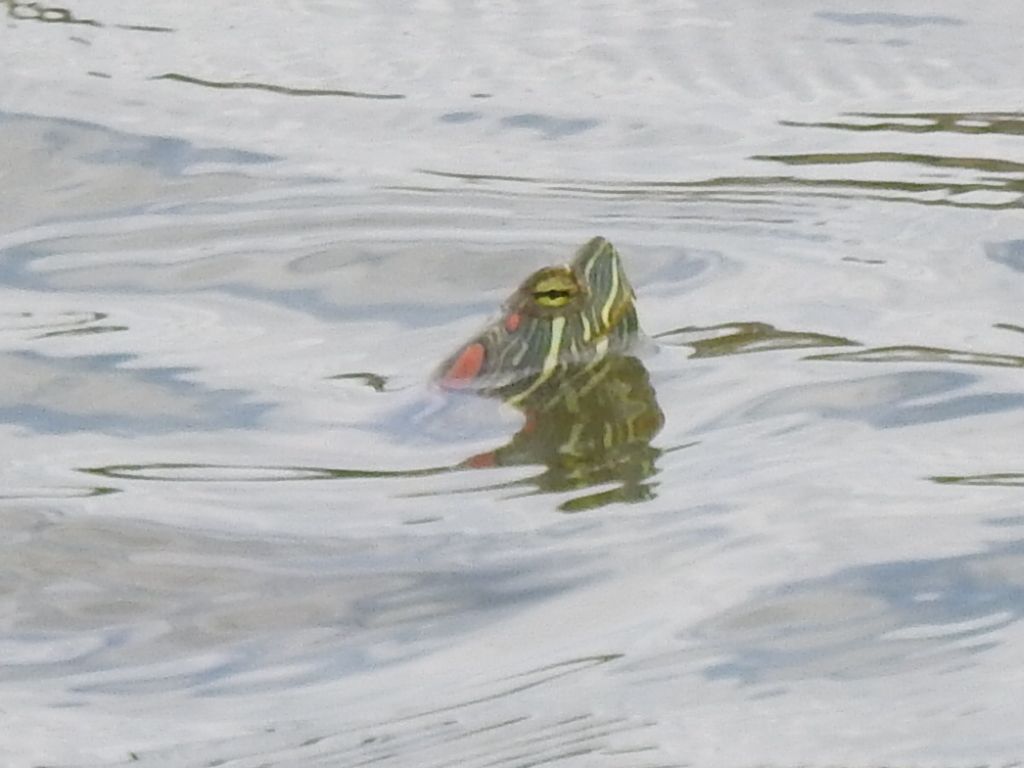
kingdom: Animalia
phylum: Chordata
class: Testudines
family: Emydidae
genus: Trachemys
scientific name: Trachemys scripta
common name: Slider
